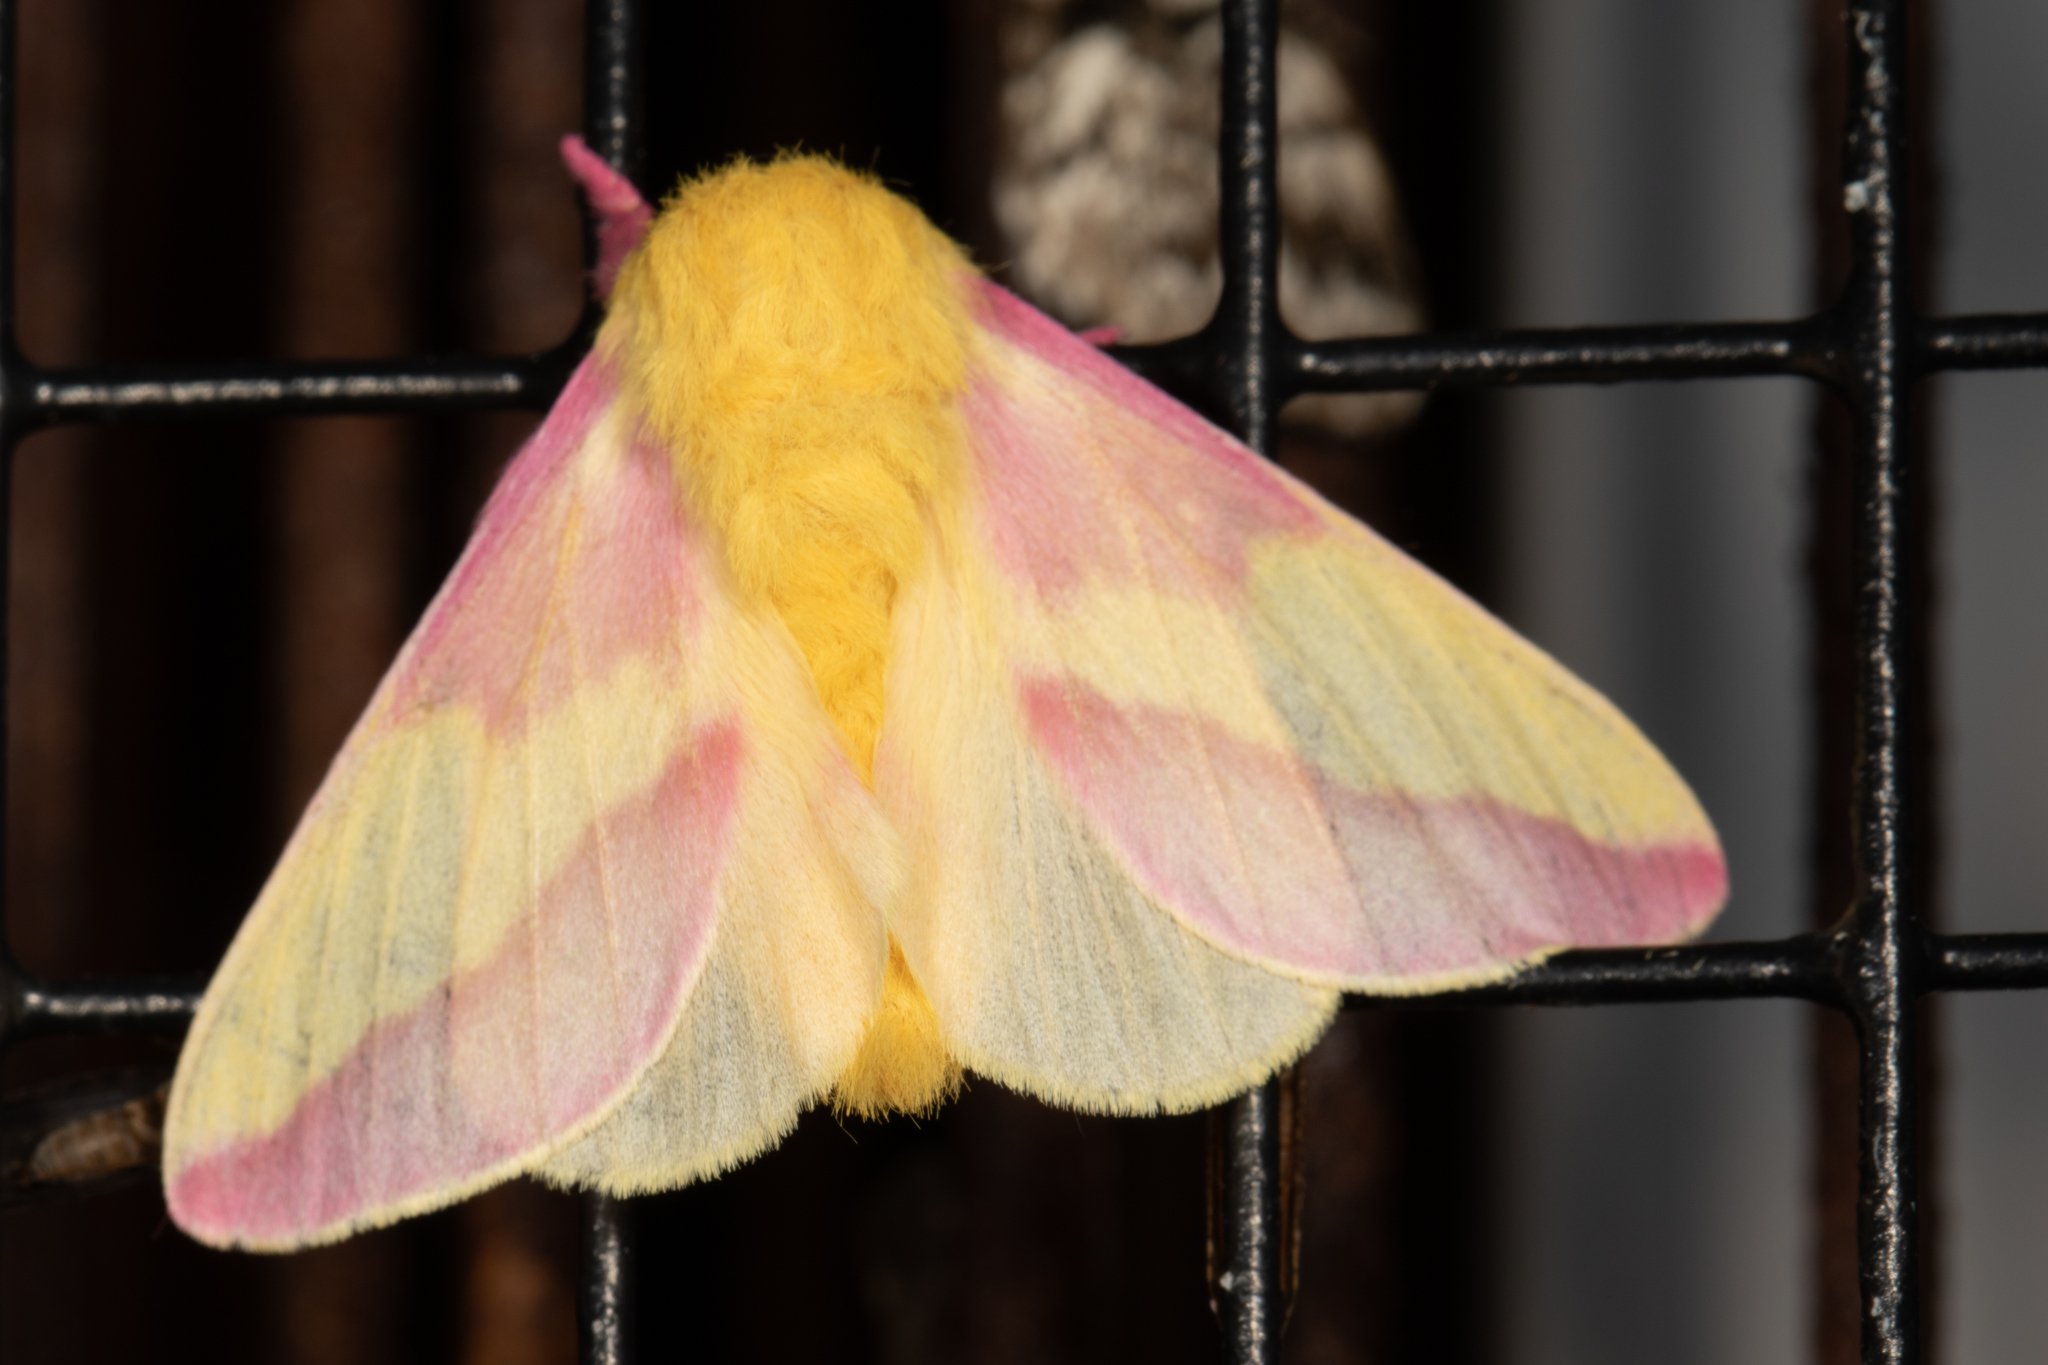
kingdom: Animalia
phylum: Arthropoda
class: Insecta
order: Lepidoptera
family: Saturniidae
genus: Dryocampa
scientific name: Dryocampa rubicunda
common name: Rosy maple moth
